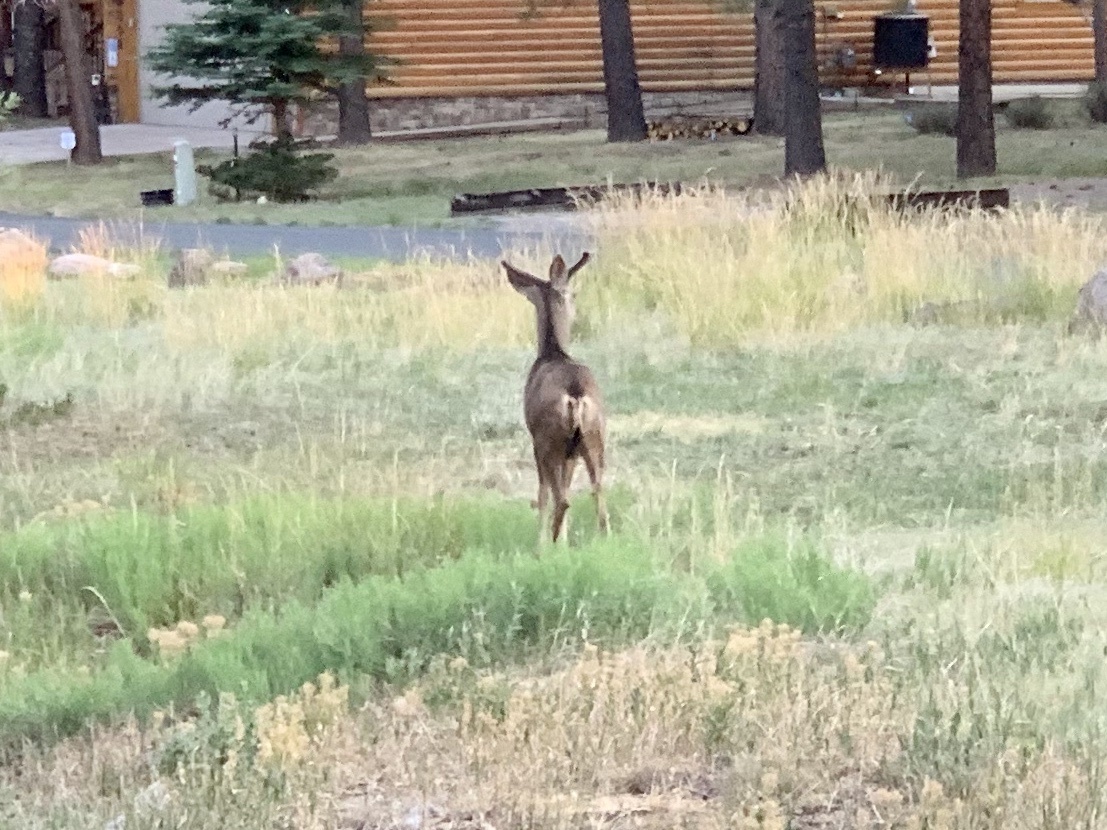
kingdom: Animalia
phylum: Chordata
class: Mammalia
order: Artiodactyla
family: Cervidae
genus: Odocoileus
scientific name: Odocoileus hemionus
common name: Mule deer
